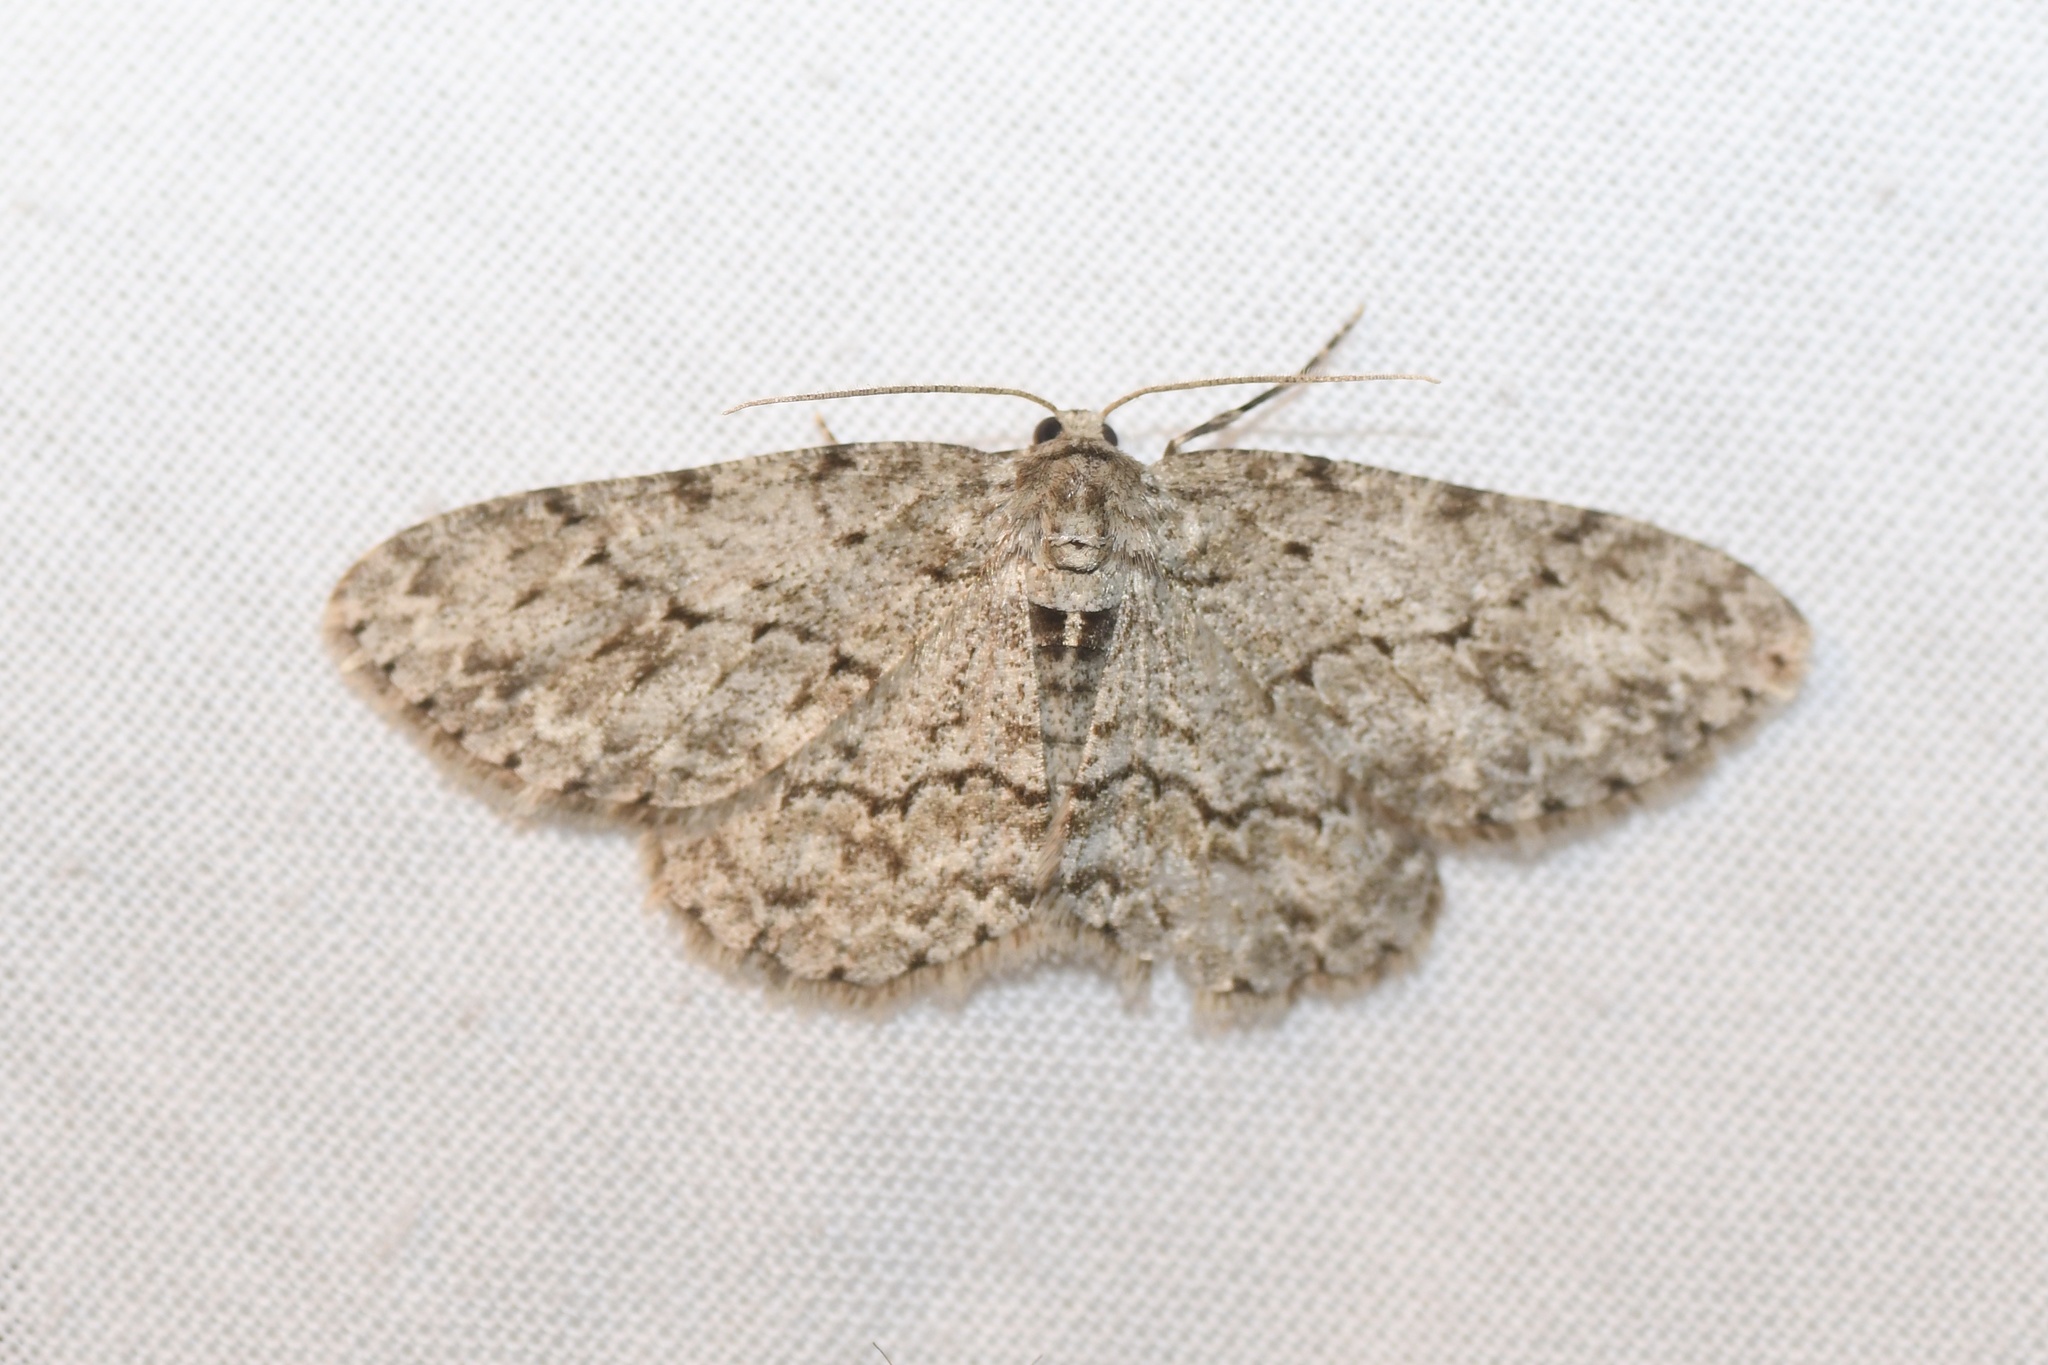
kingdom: Animalia
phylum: Arthropoda
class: Insecta
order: Lepidoptera
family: Geometridae
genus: Ectropis
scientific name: Ectropis crepuscularia
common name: Engrailed
